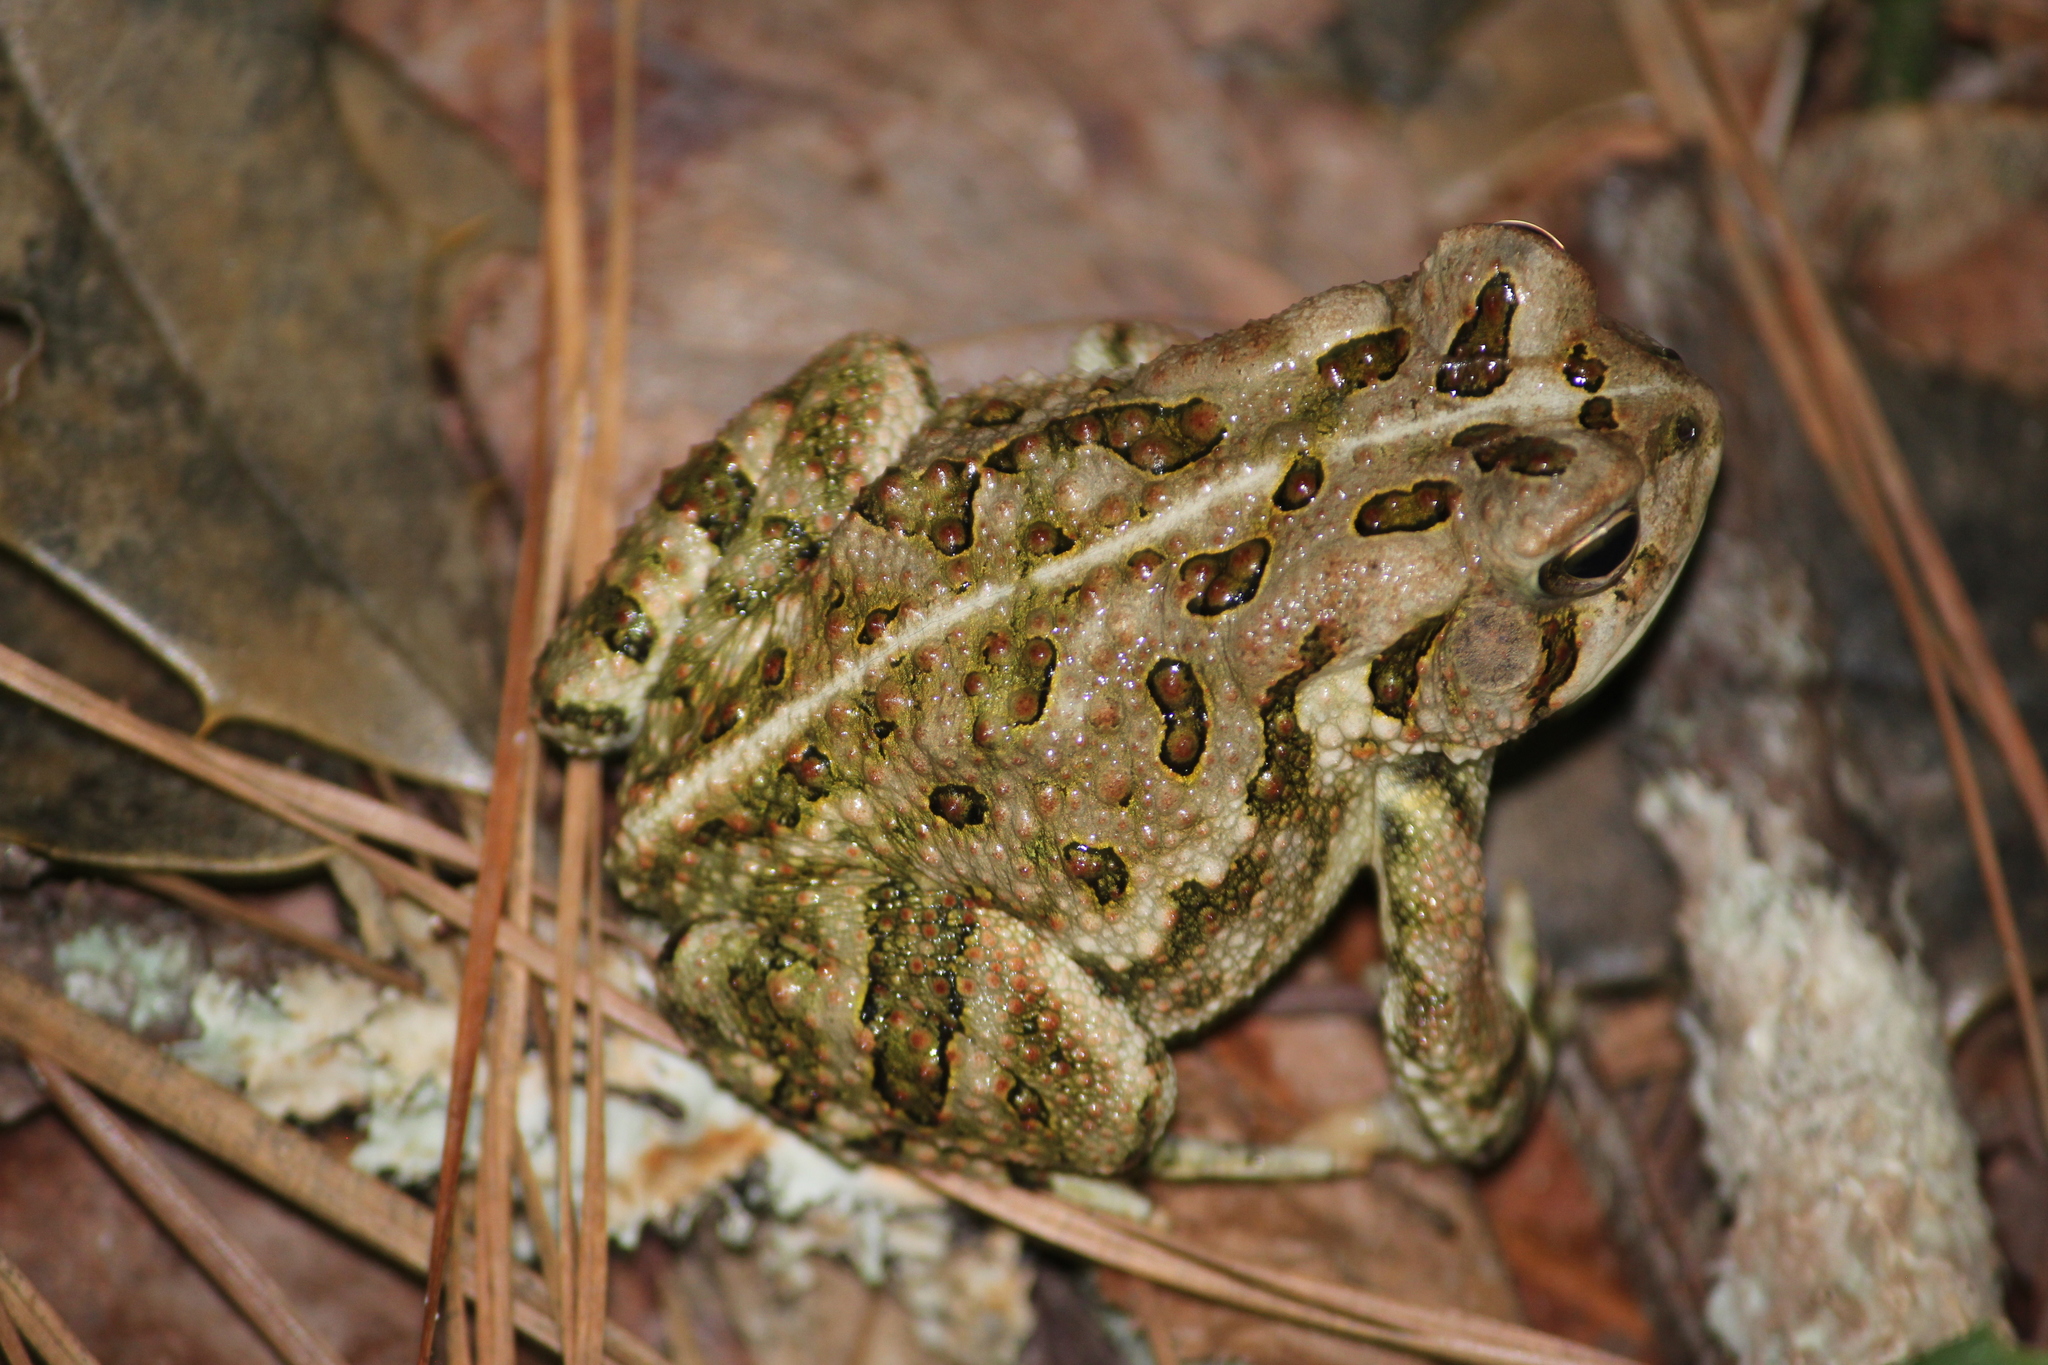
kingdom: Animalia
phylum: Chordata
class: Amphibia
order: Anura
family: Bufonidae
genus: Anaxyrus
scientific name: Anaxyrus fowleri
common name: Fowler's toad
